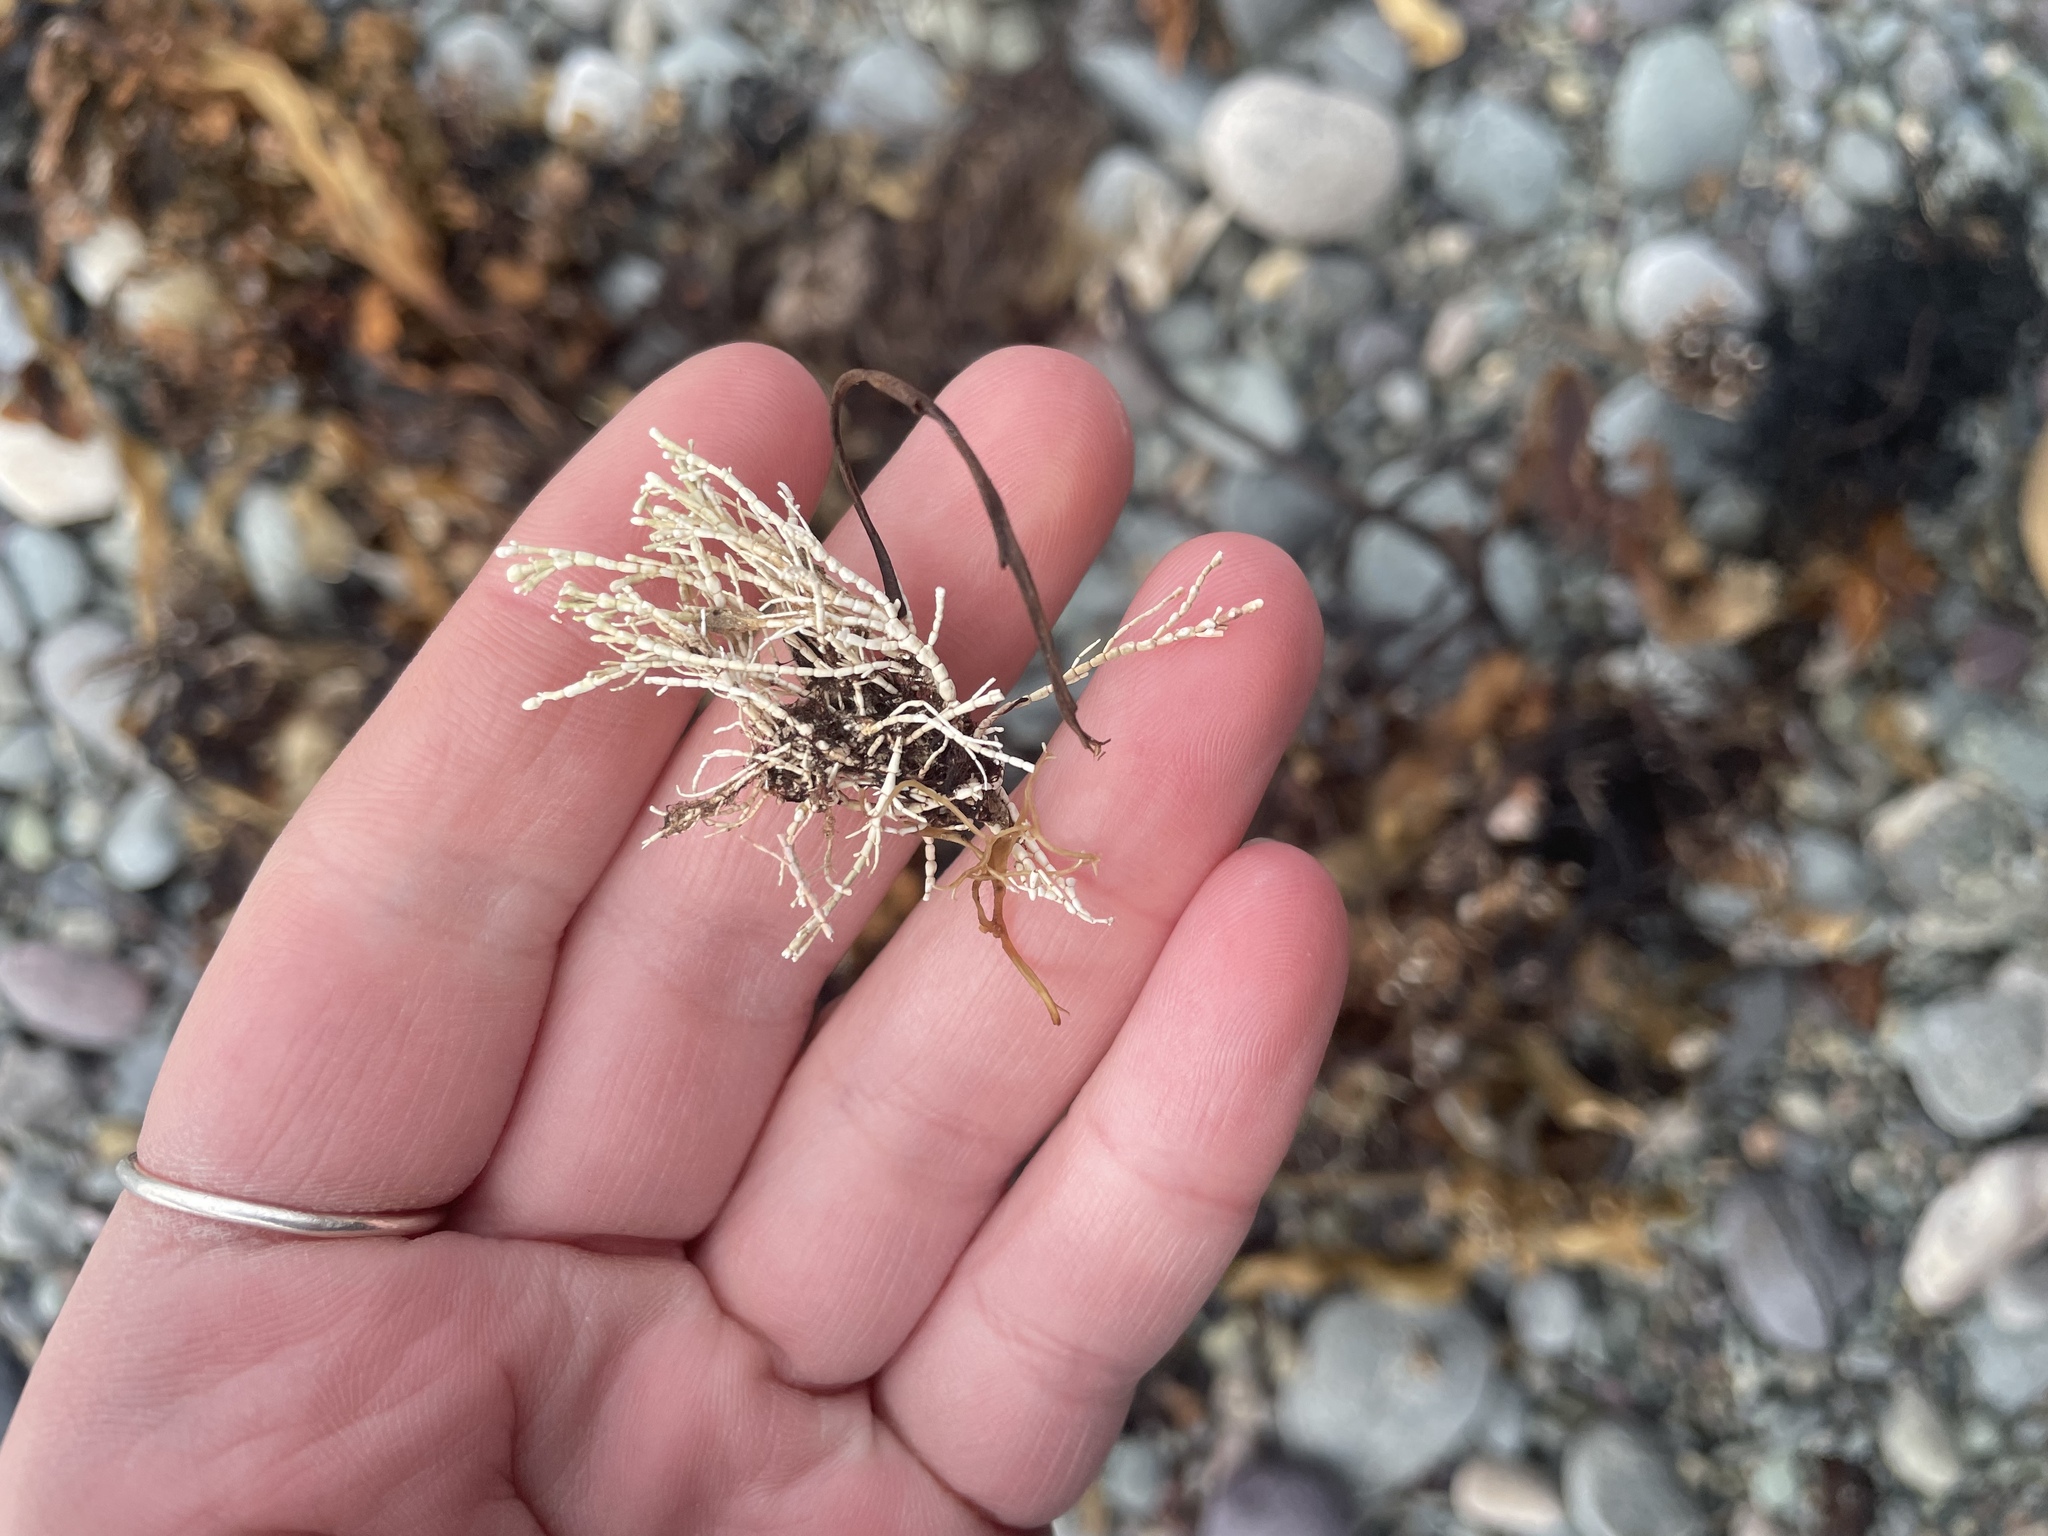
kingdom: Plantae
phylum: Rhodophyta
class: Florideophyceae
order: Corallinales
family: Corallinaceae
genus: Corallina
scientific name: Corallina officinalis
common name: Coral weed
